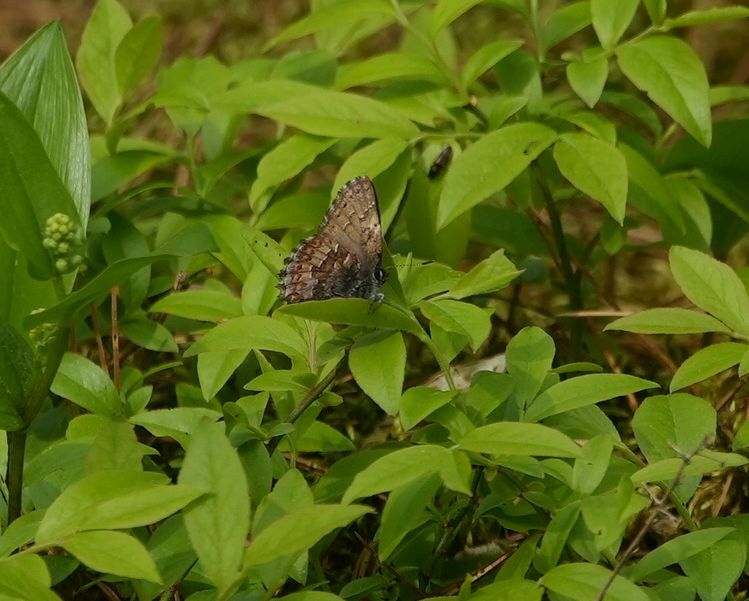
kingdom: Animalia
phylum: Arthropoda
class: Insecta
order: Lepidoptera
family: Lycaenidae
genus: Incisalia
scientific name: Incisalia niphon
